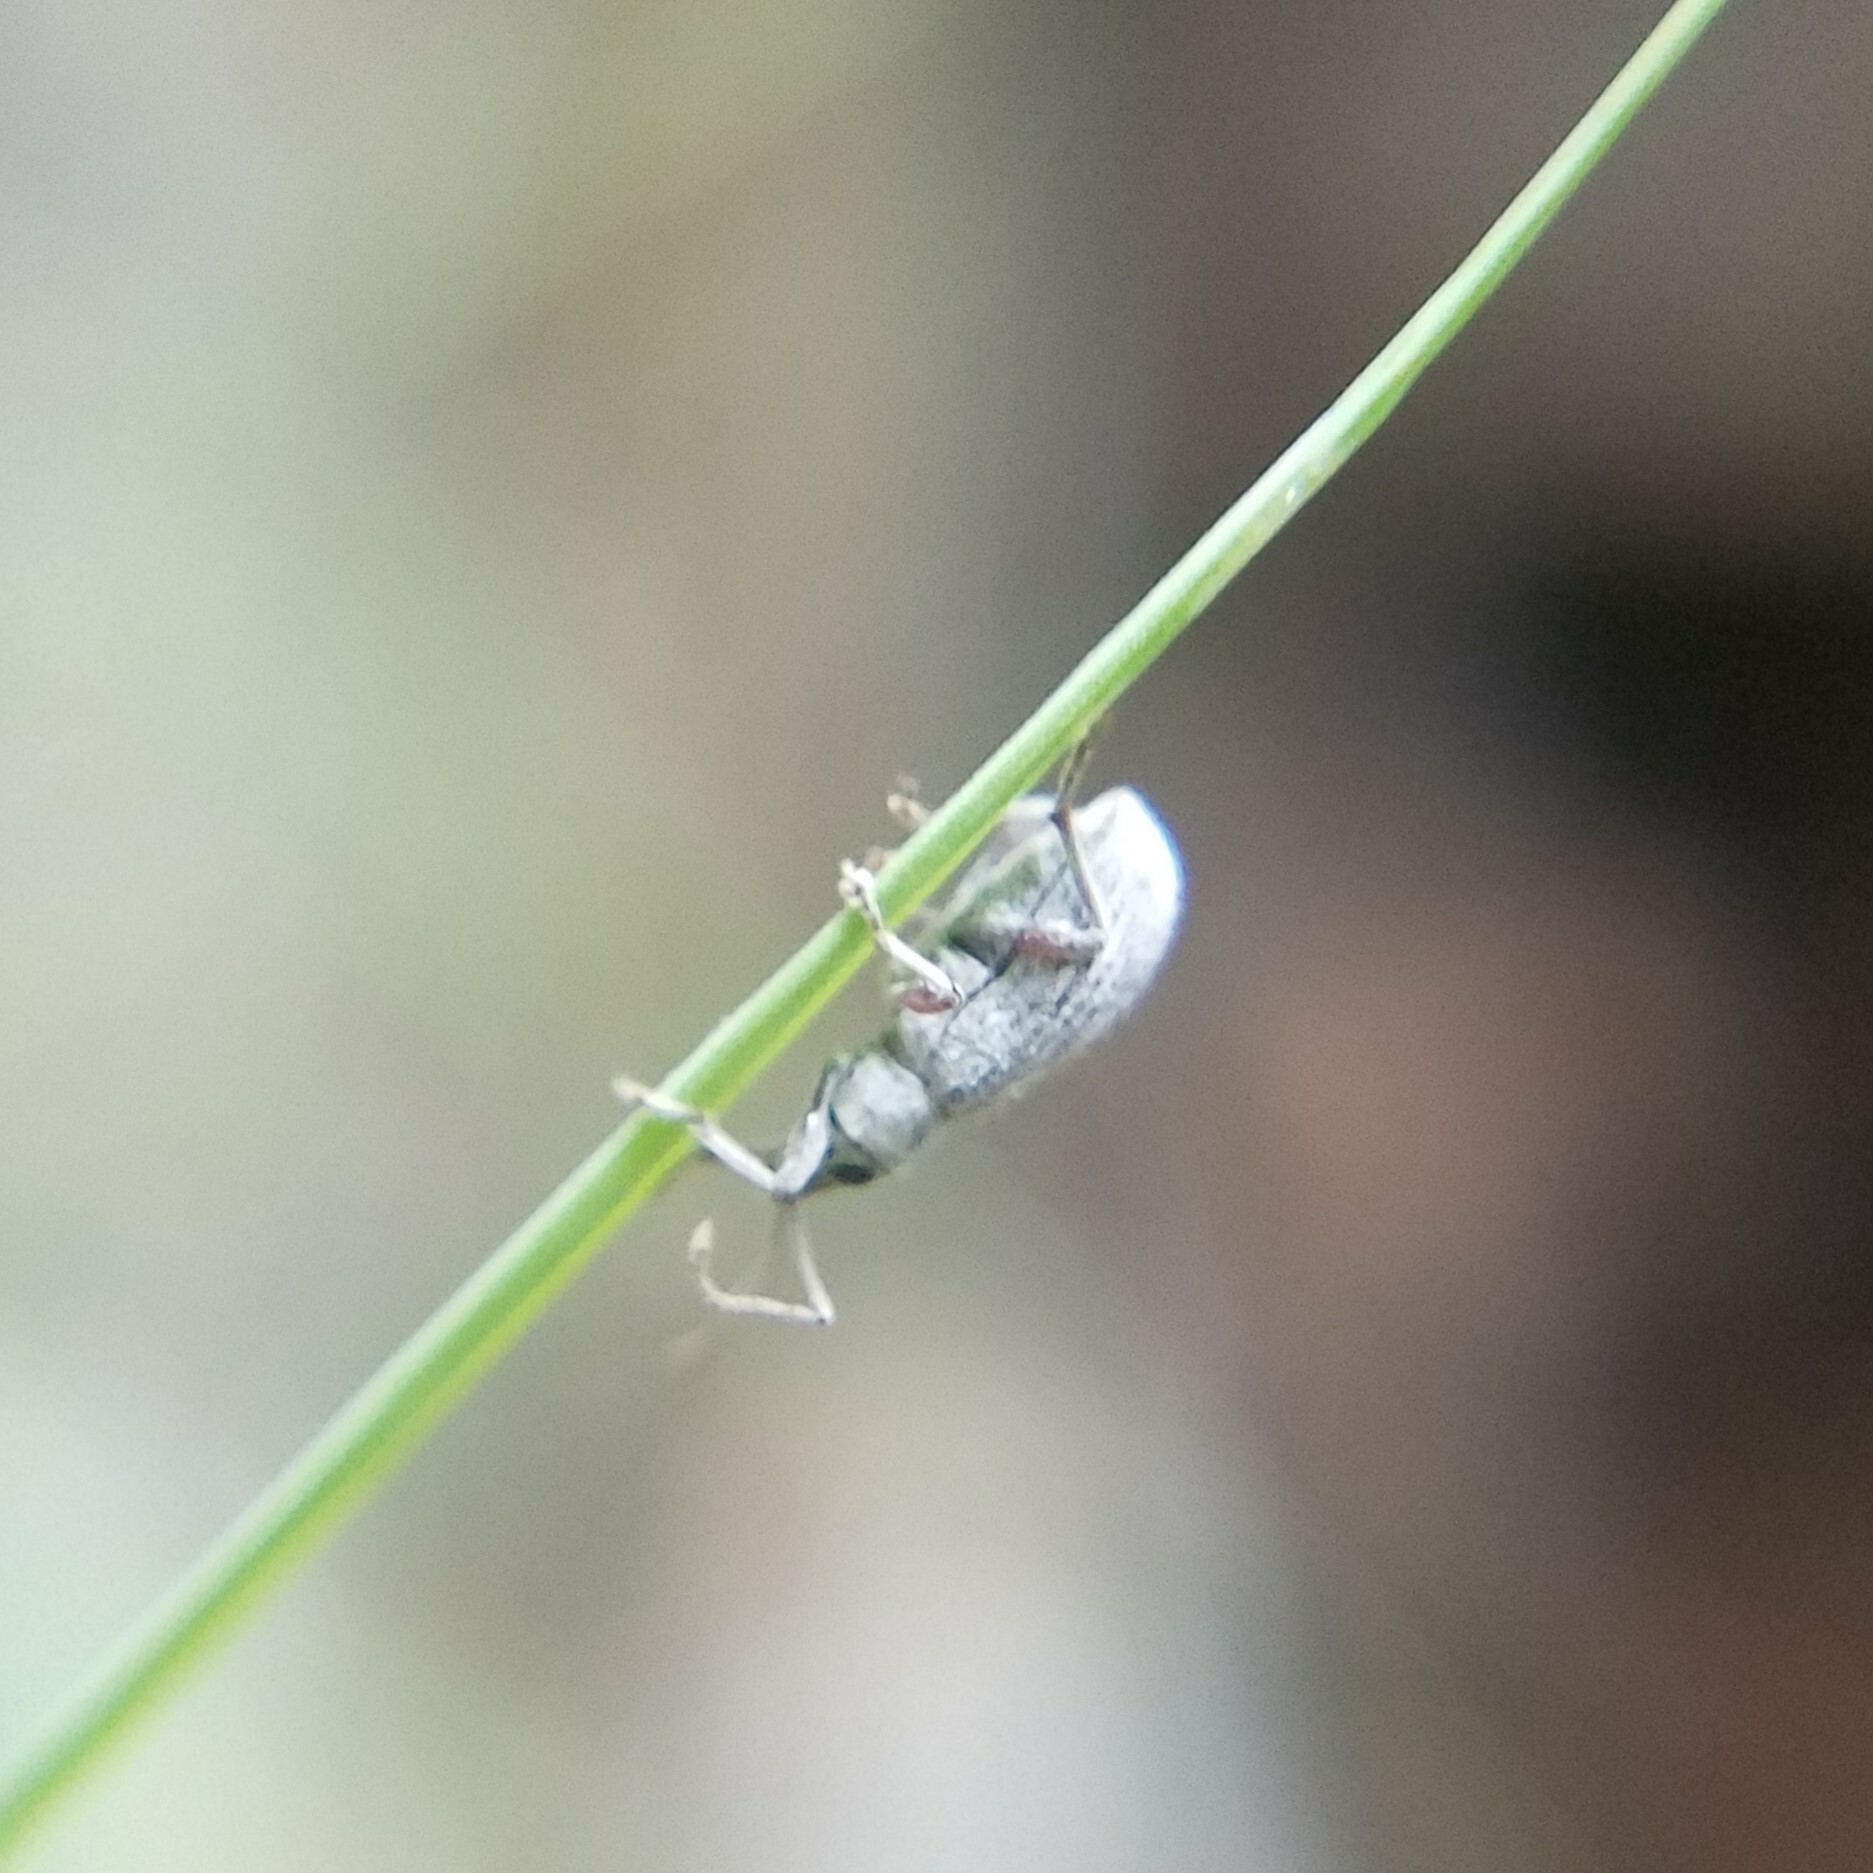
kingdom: Animalia
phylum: Arthropoda
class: Insecta
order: Coleoptera
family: Curculionidae
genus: Cyrtepistomus
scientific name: Cyrtepistomus castaneus
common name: Weevil
